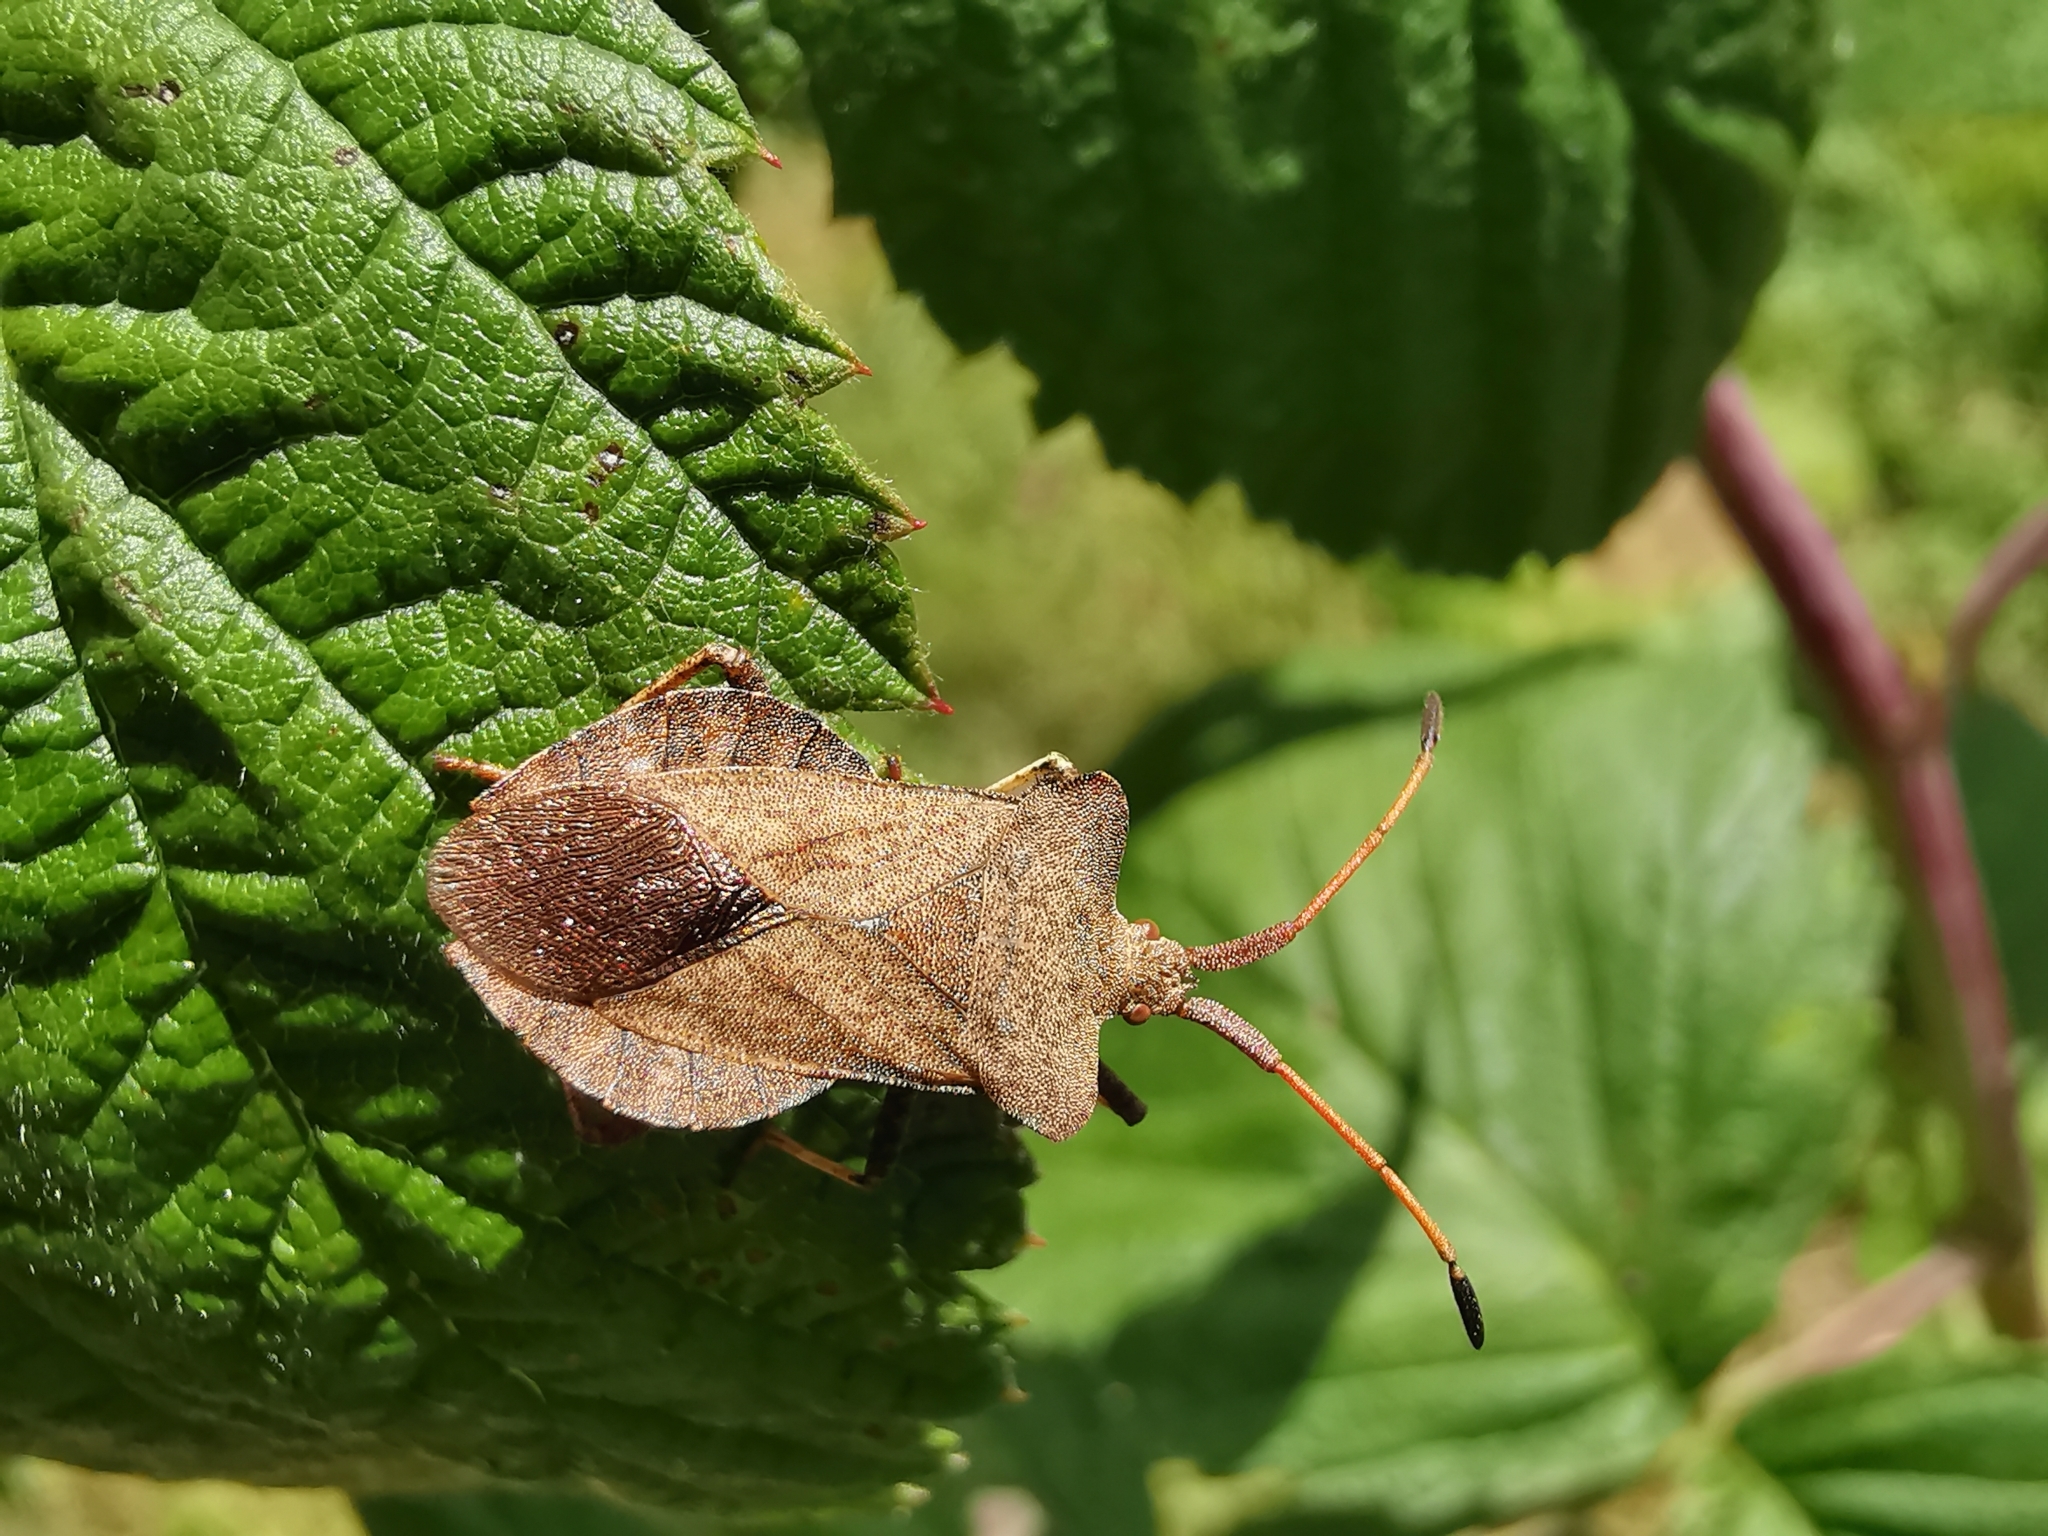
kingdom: Animalia
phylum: Arthropoda
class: Insecta
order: Hemiptera
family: Coreidae
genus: Coreus
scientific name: Coreus marginatus
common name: Dock bug
